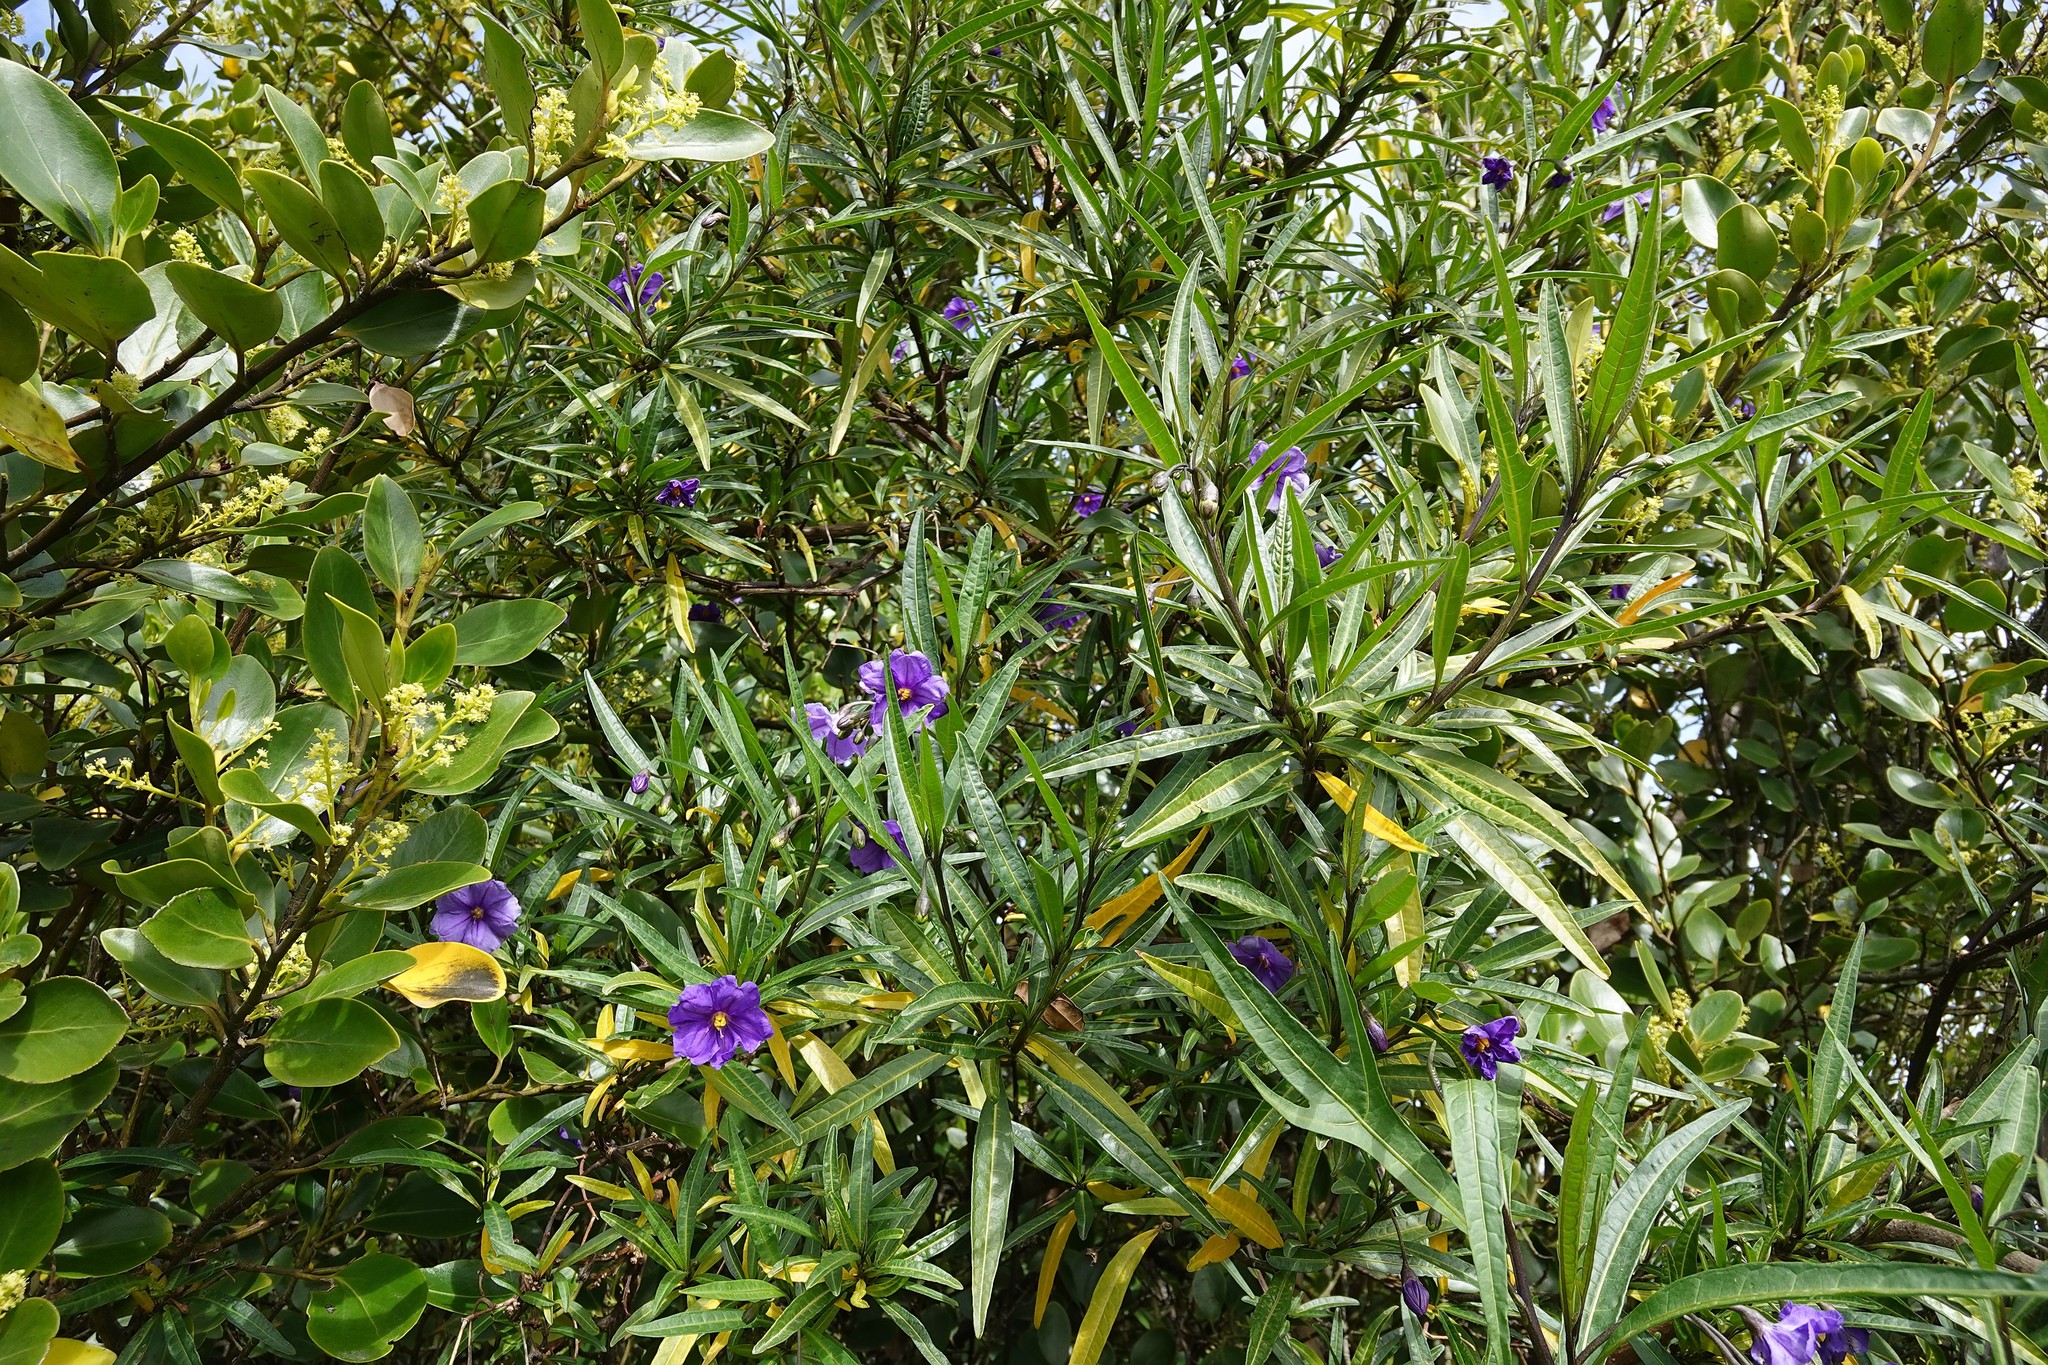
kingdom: Plantae
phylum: Tracheophyta
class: Magnoliopsida
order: Solanales
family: Solanaceae
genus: Solanum
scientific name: Solanum laciniatum
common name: Kangaroo-apple
